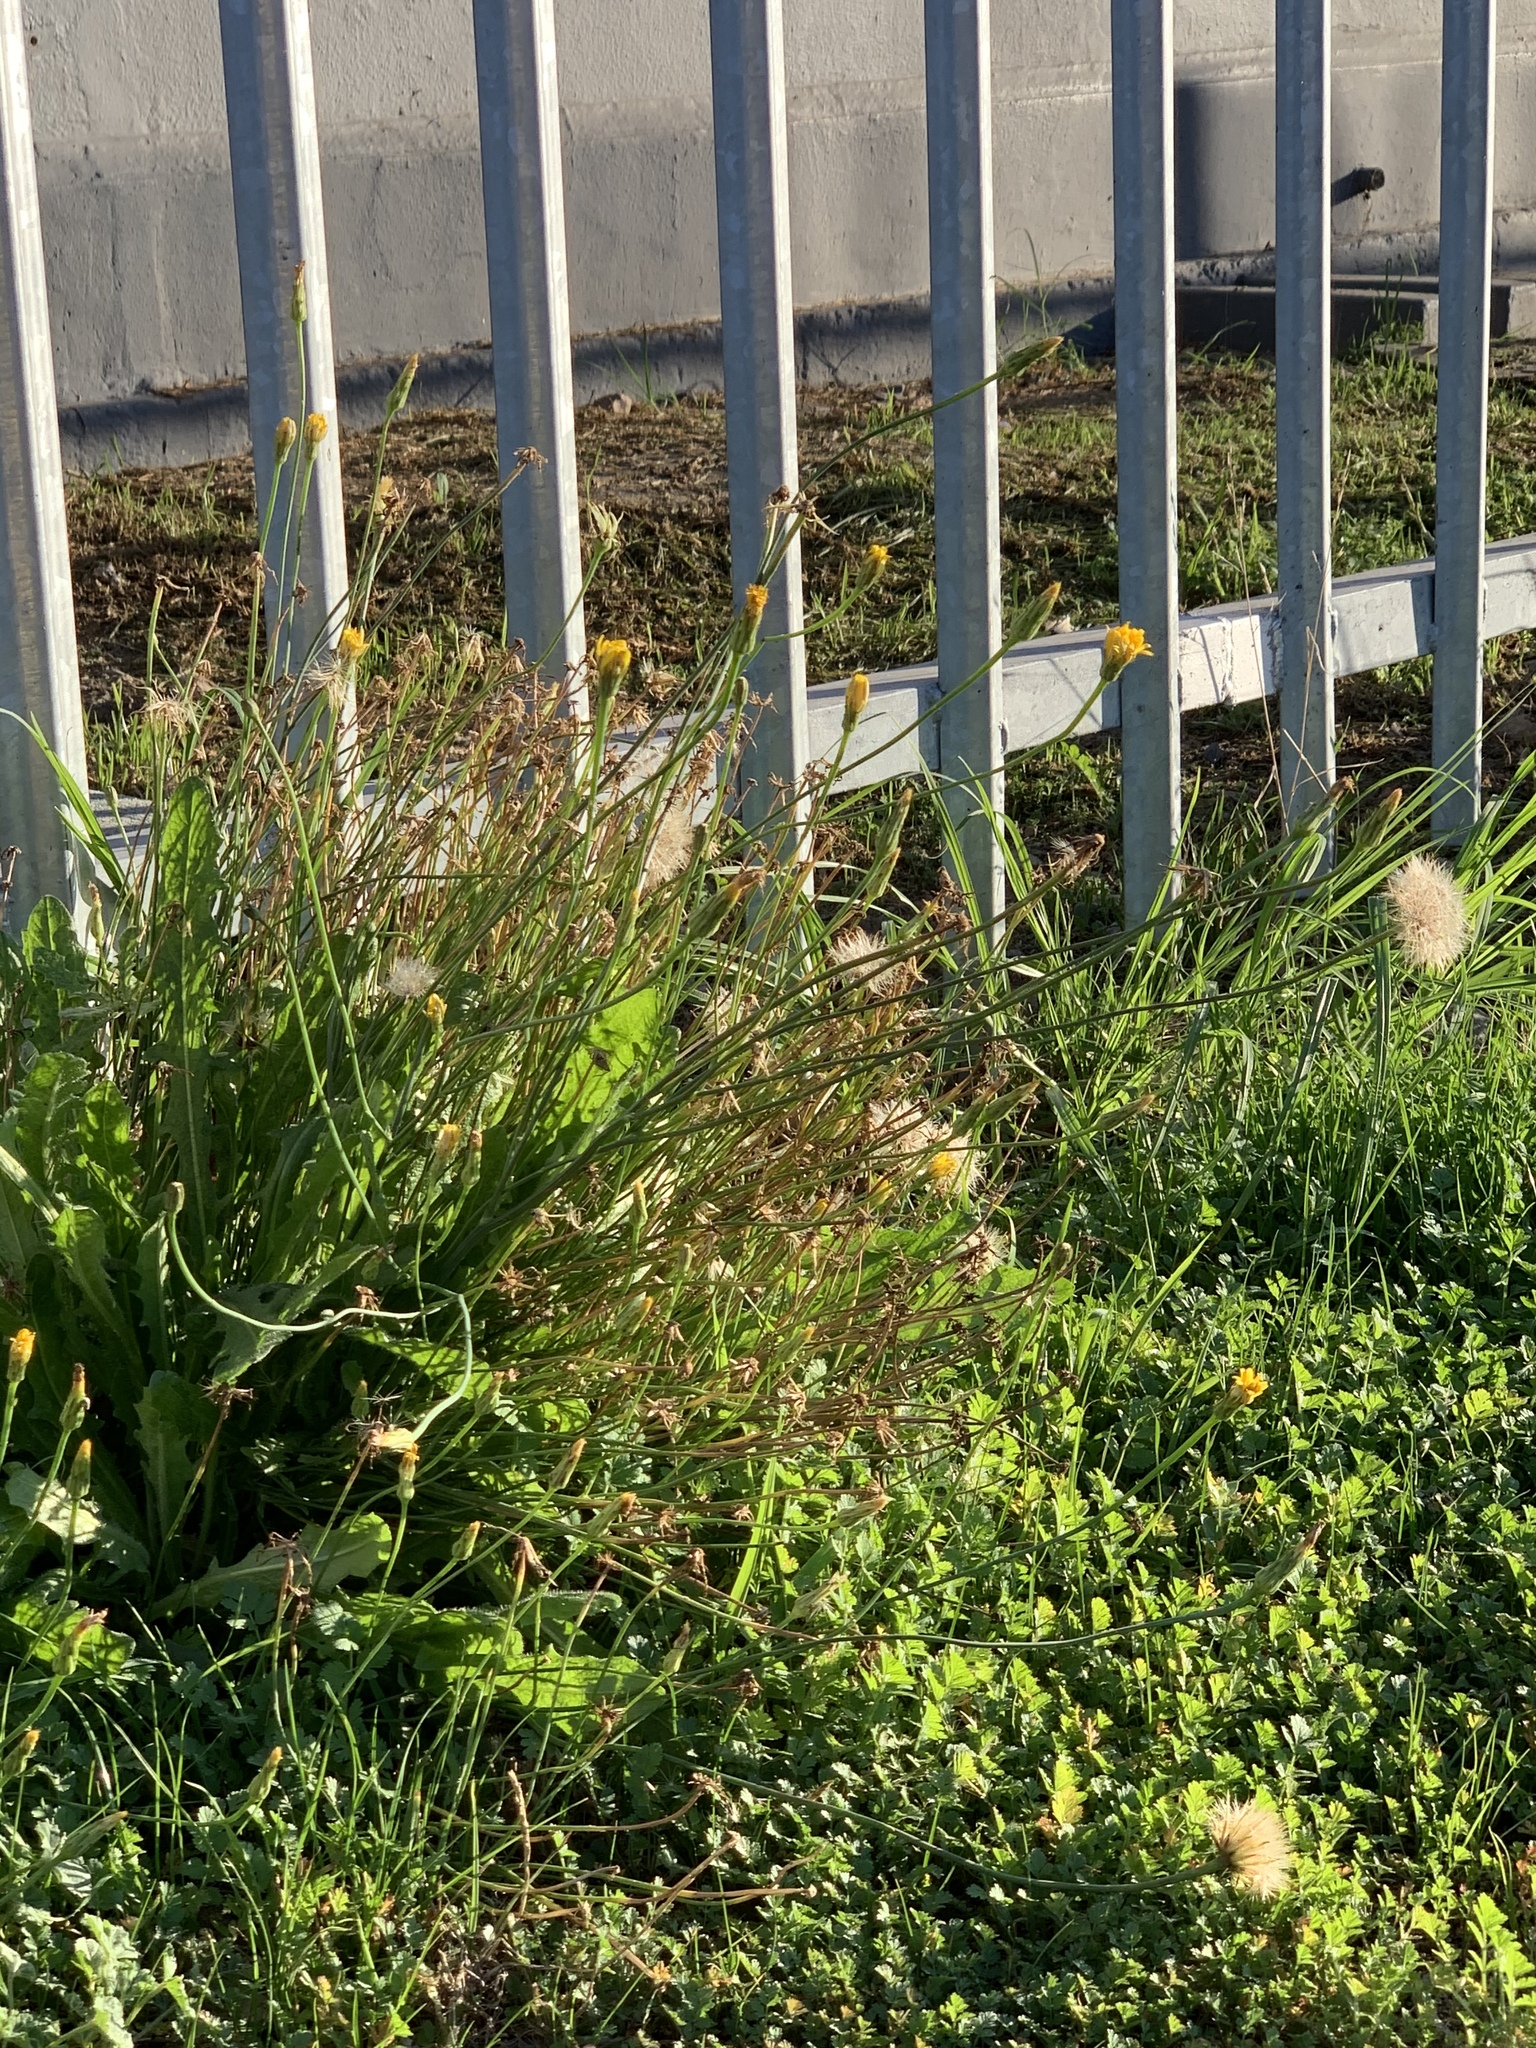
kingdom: Plantae
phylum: Tracheophyta
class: Magnoliopsida
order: Asterales
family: Asteraceae
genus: Hypochaeris
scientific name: Hypochaeris radicata
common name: Flatweed
